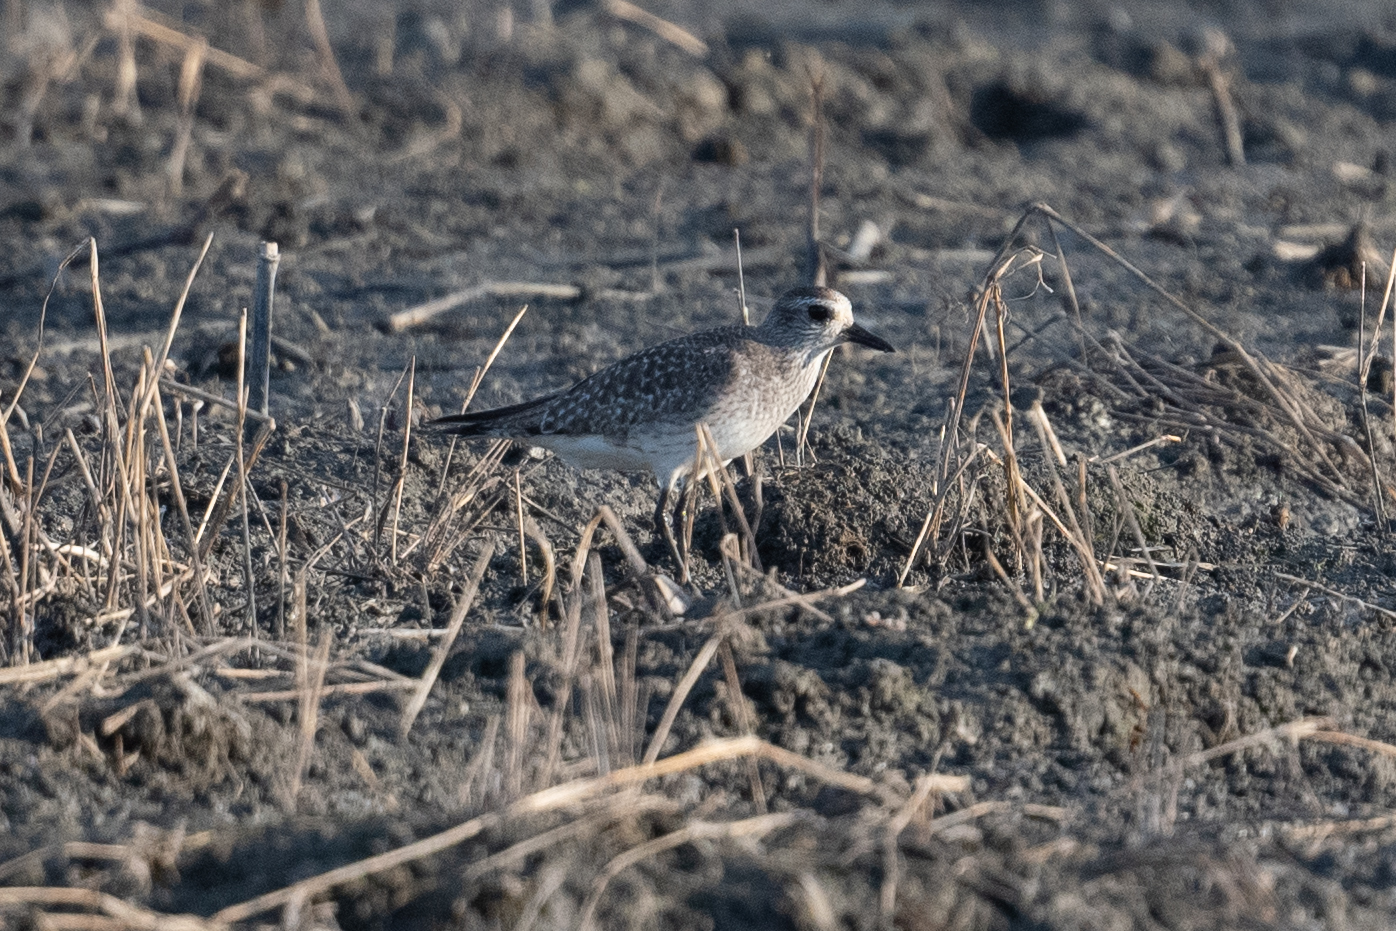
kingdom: Animalia
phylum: Chordata
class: Aves
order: Charadriiformes
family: Charadriidae
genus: Pluvialis
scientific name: Pluvialis squatarola
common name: Grey plover
